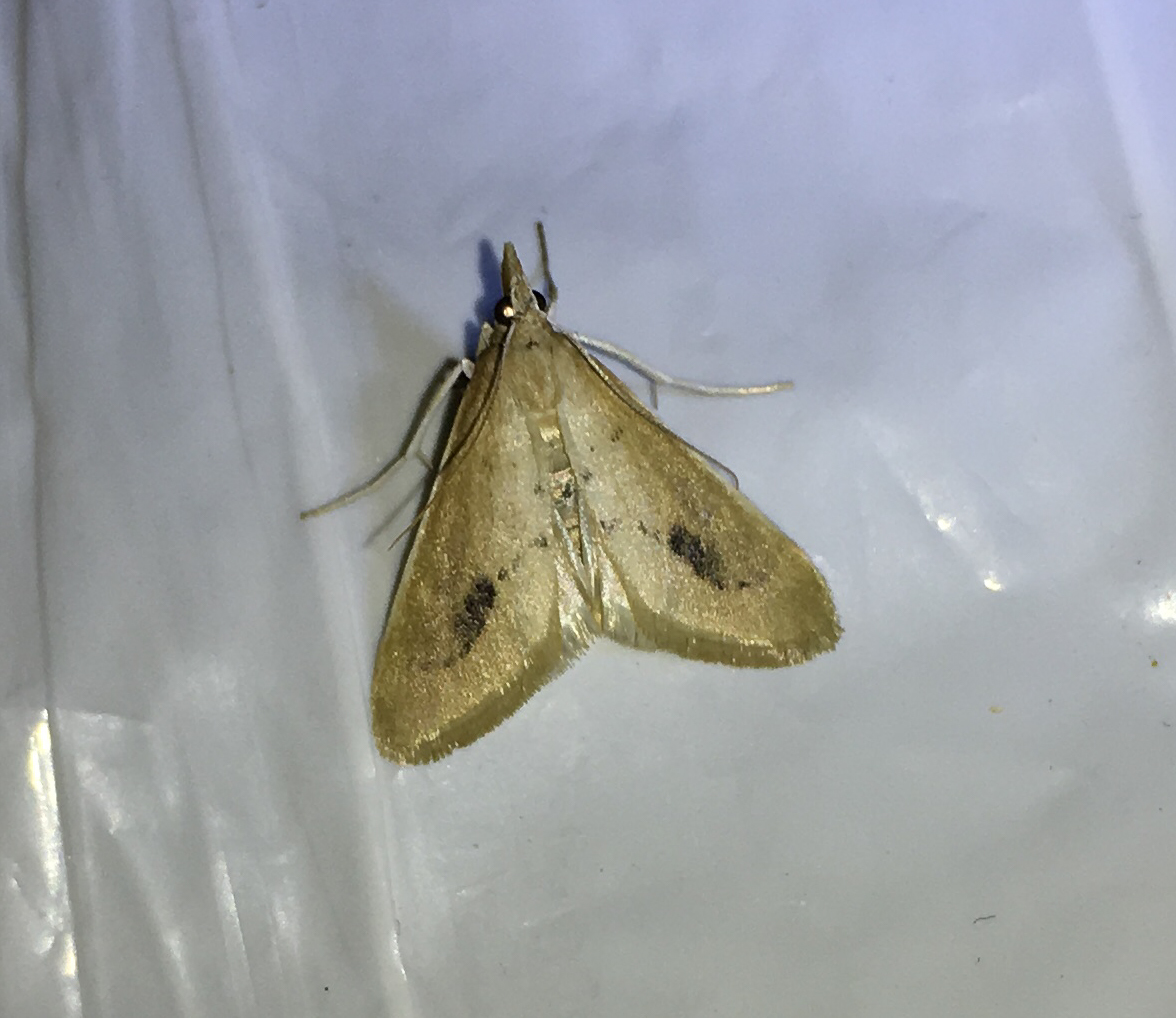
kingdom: Animalia
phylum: Arthropoda
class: Insecta
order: Lepidoptera
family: Crambidae
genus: Arenochroa
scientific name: Arenochroa flavalis
